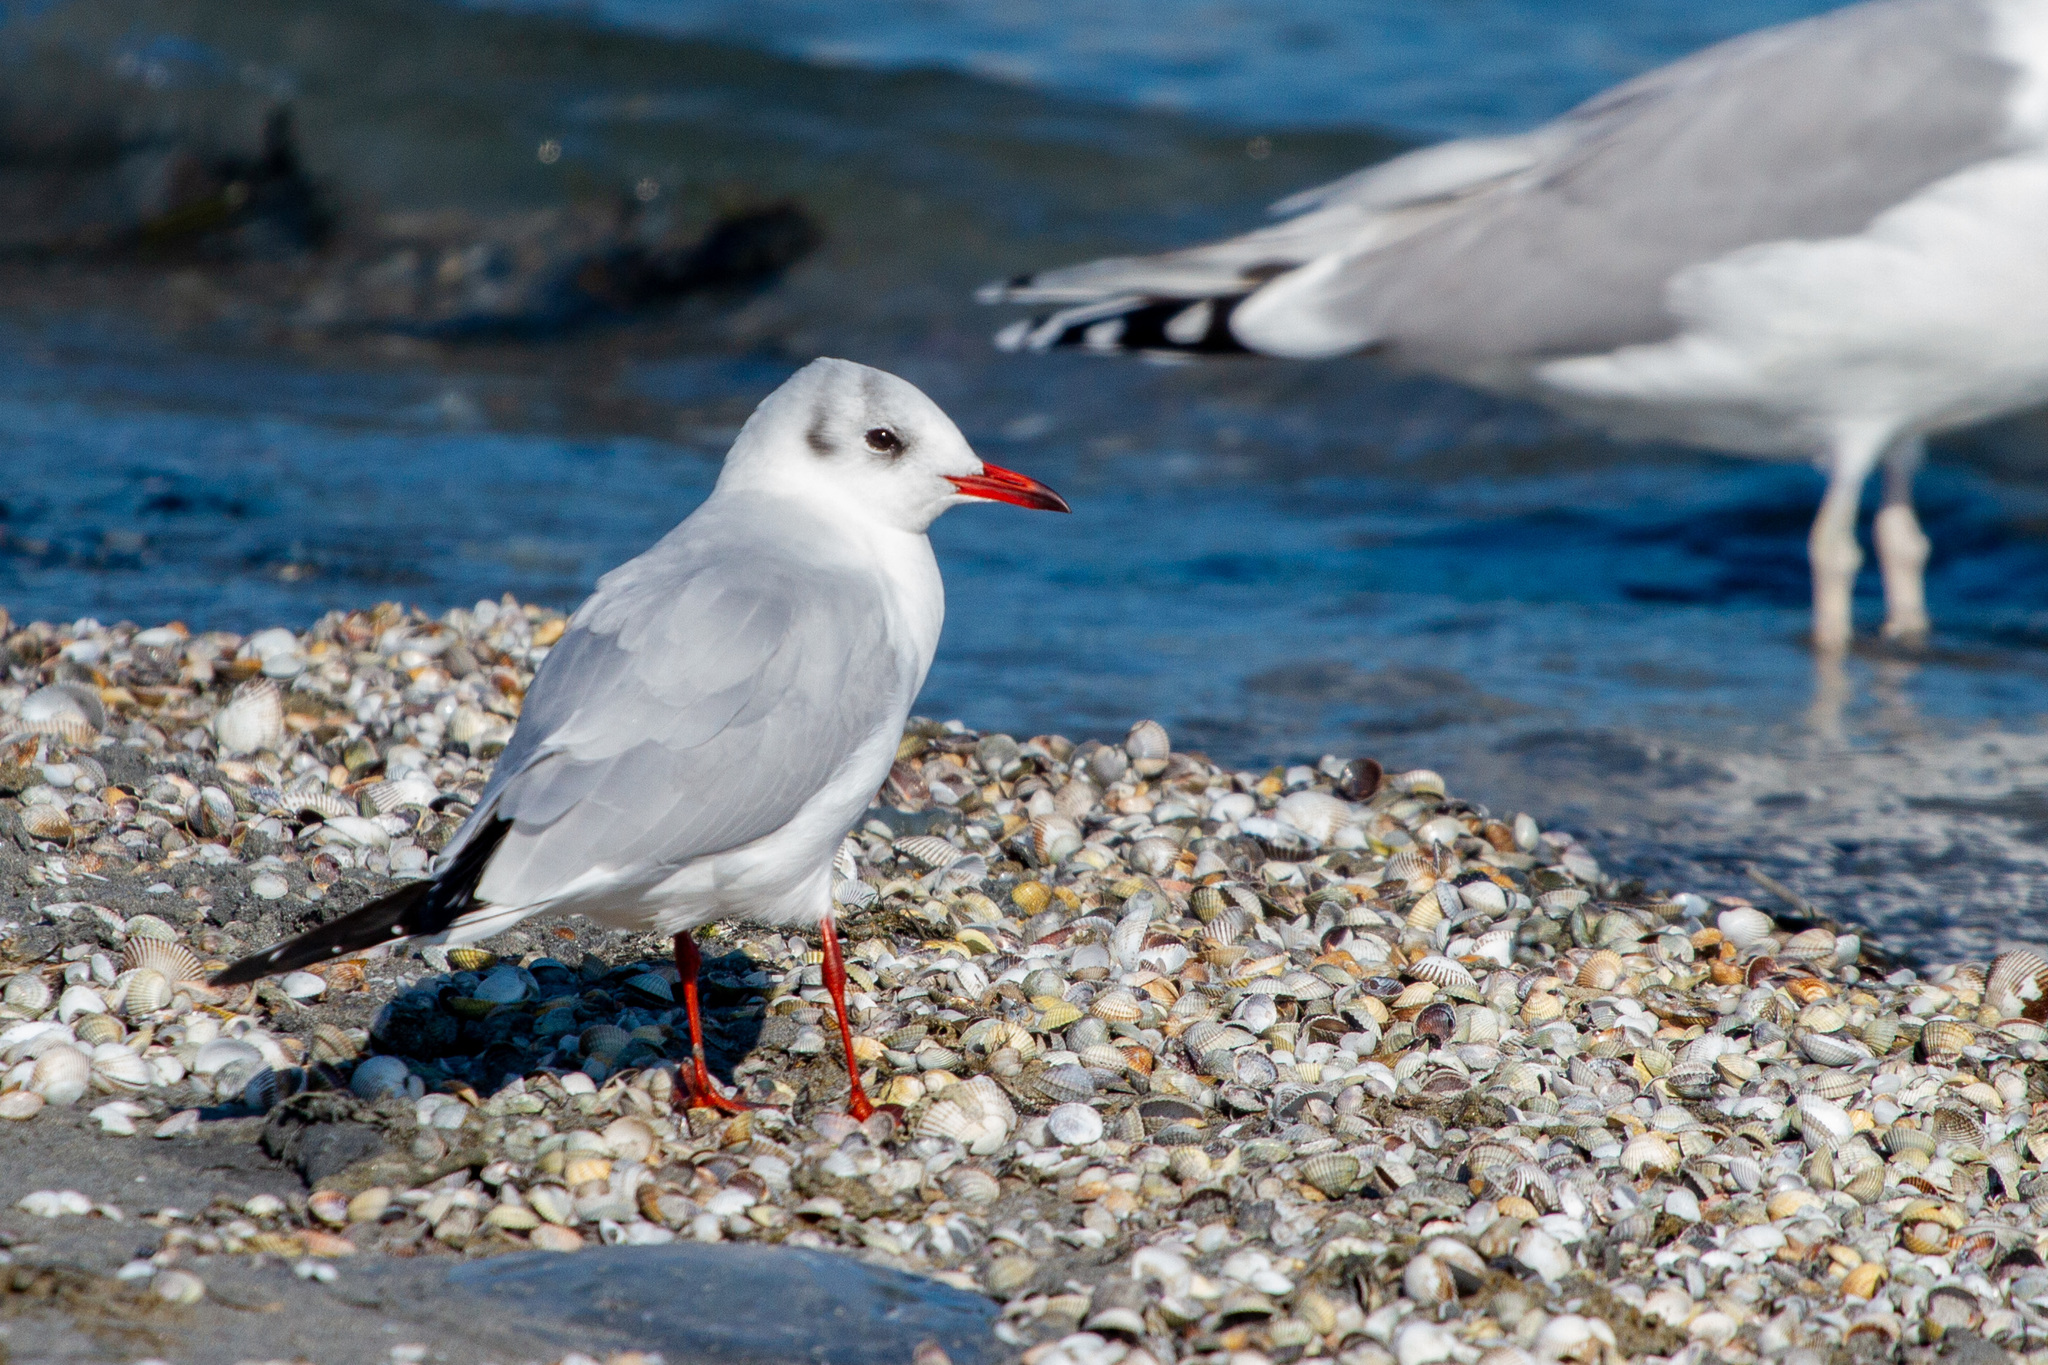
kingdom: Animalia
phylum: Chordata
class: Aves
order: Charadriiformes
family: Laridae
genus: Chroicocephalus
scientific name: Chroicocephalus ridibundus
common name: Black-headed gull
